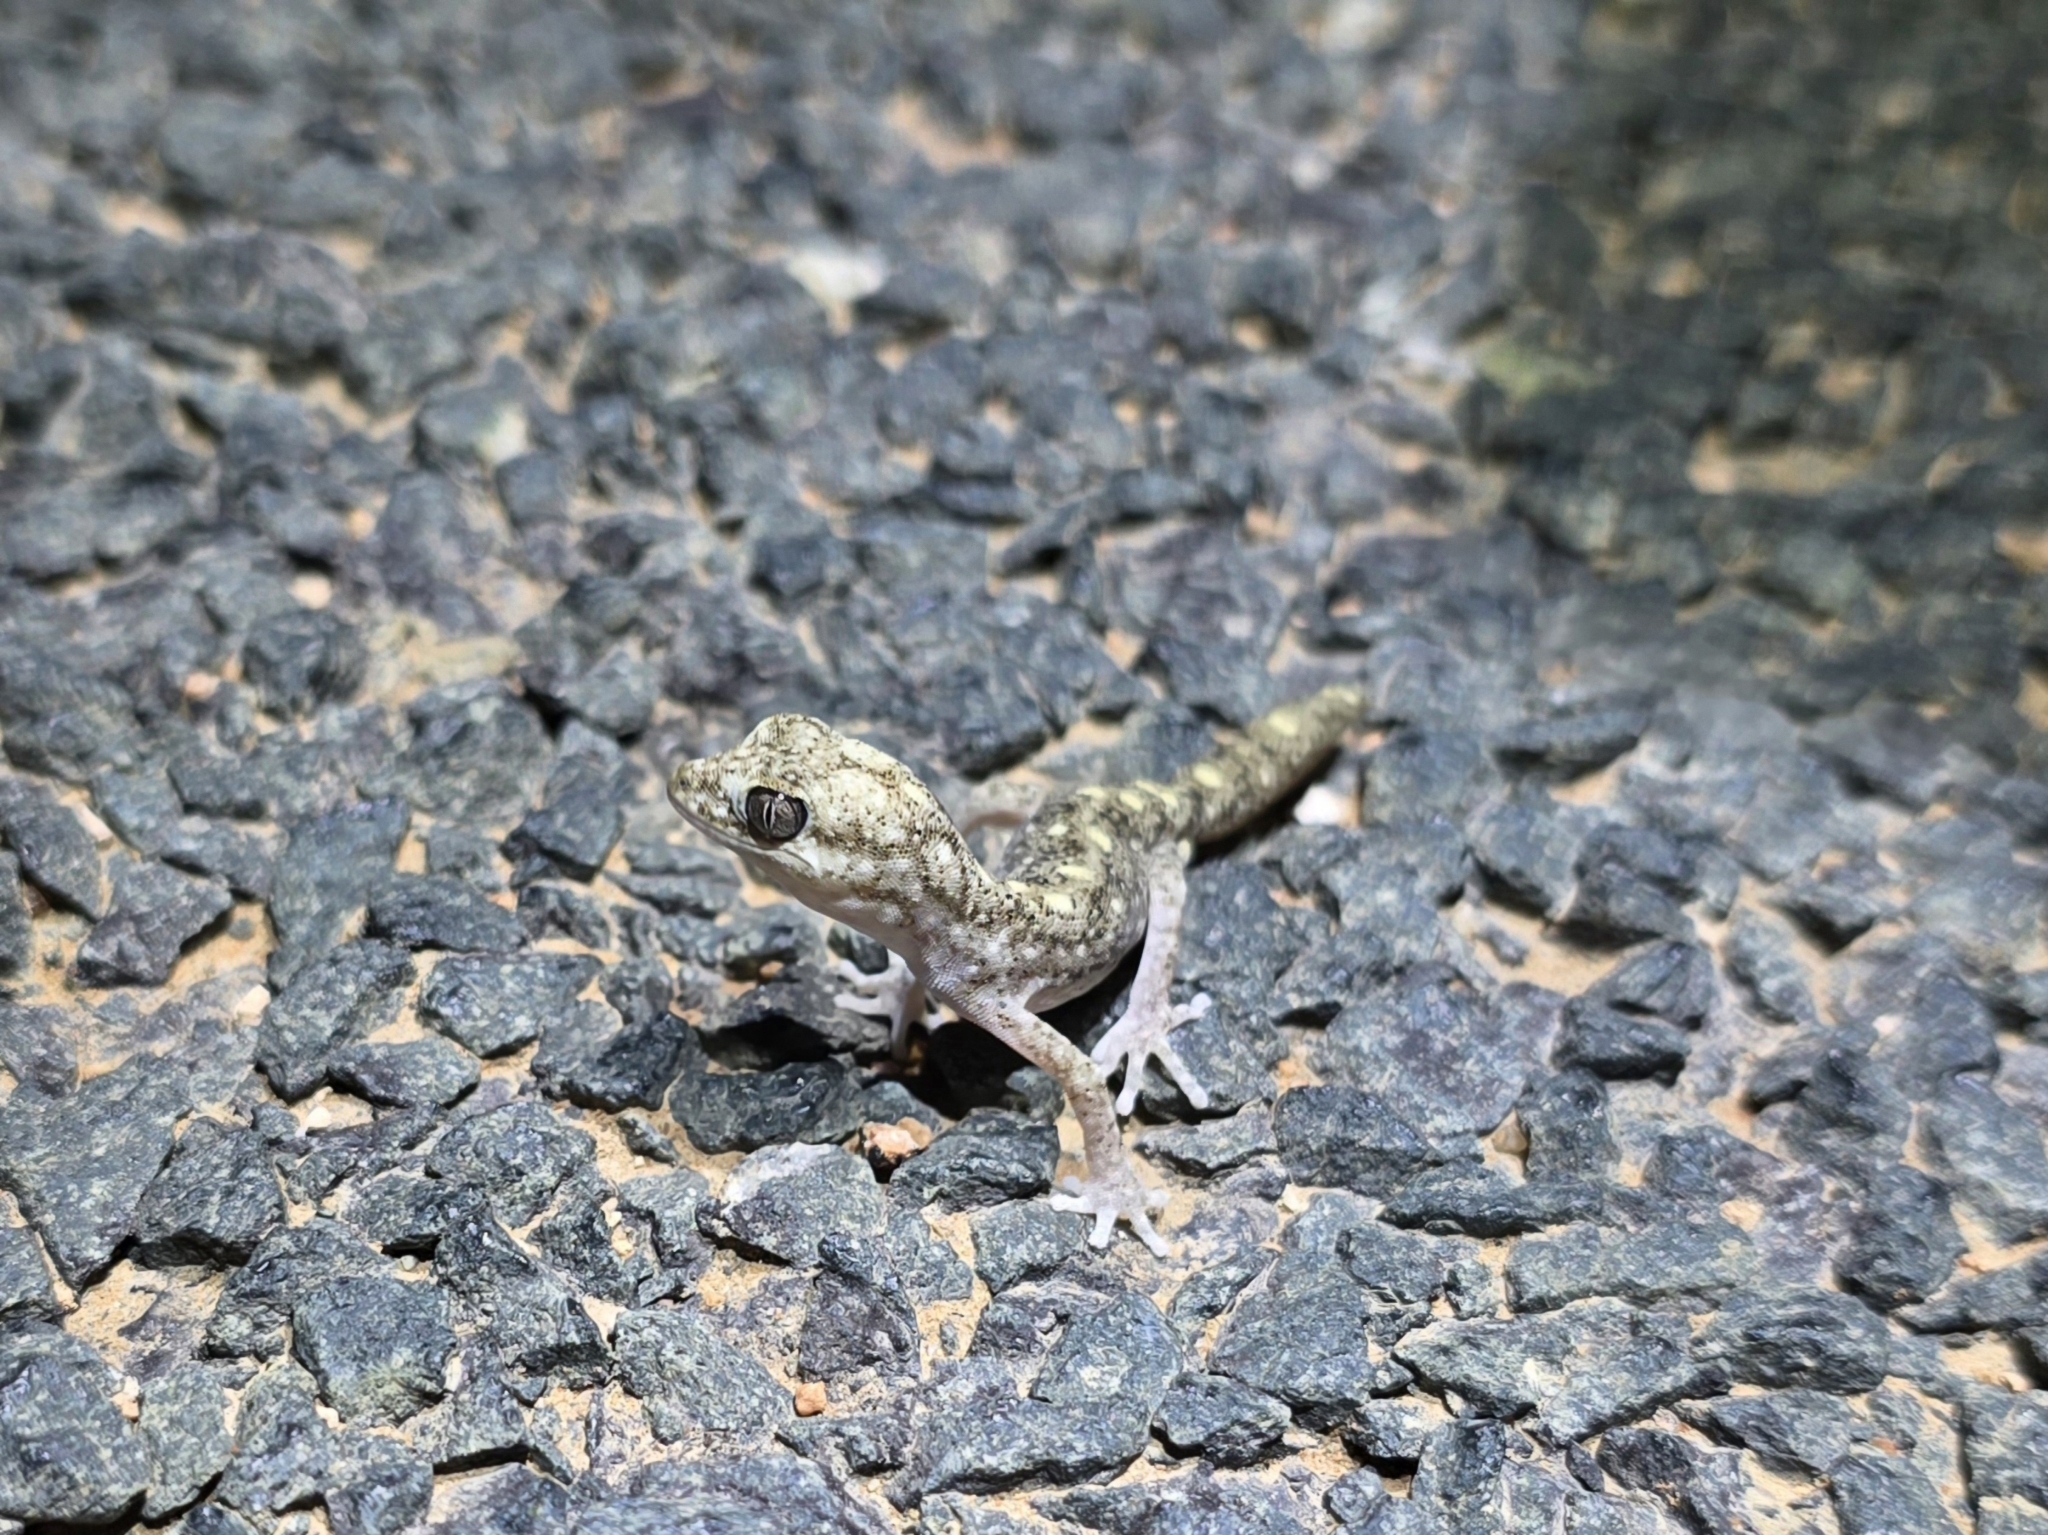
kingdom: Animalia
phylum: Chordata
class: Squamata
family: Diplodactylidae
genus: Diplodactylus
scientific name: Diplodactylus tessellatus
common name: Tesselated gecko
